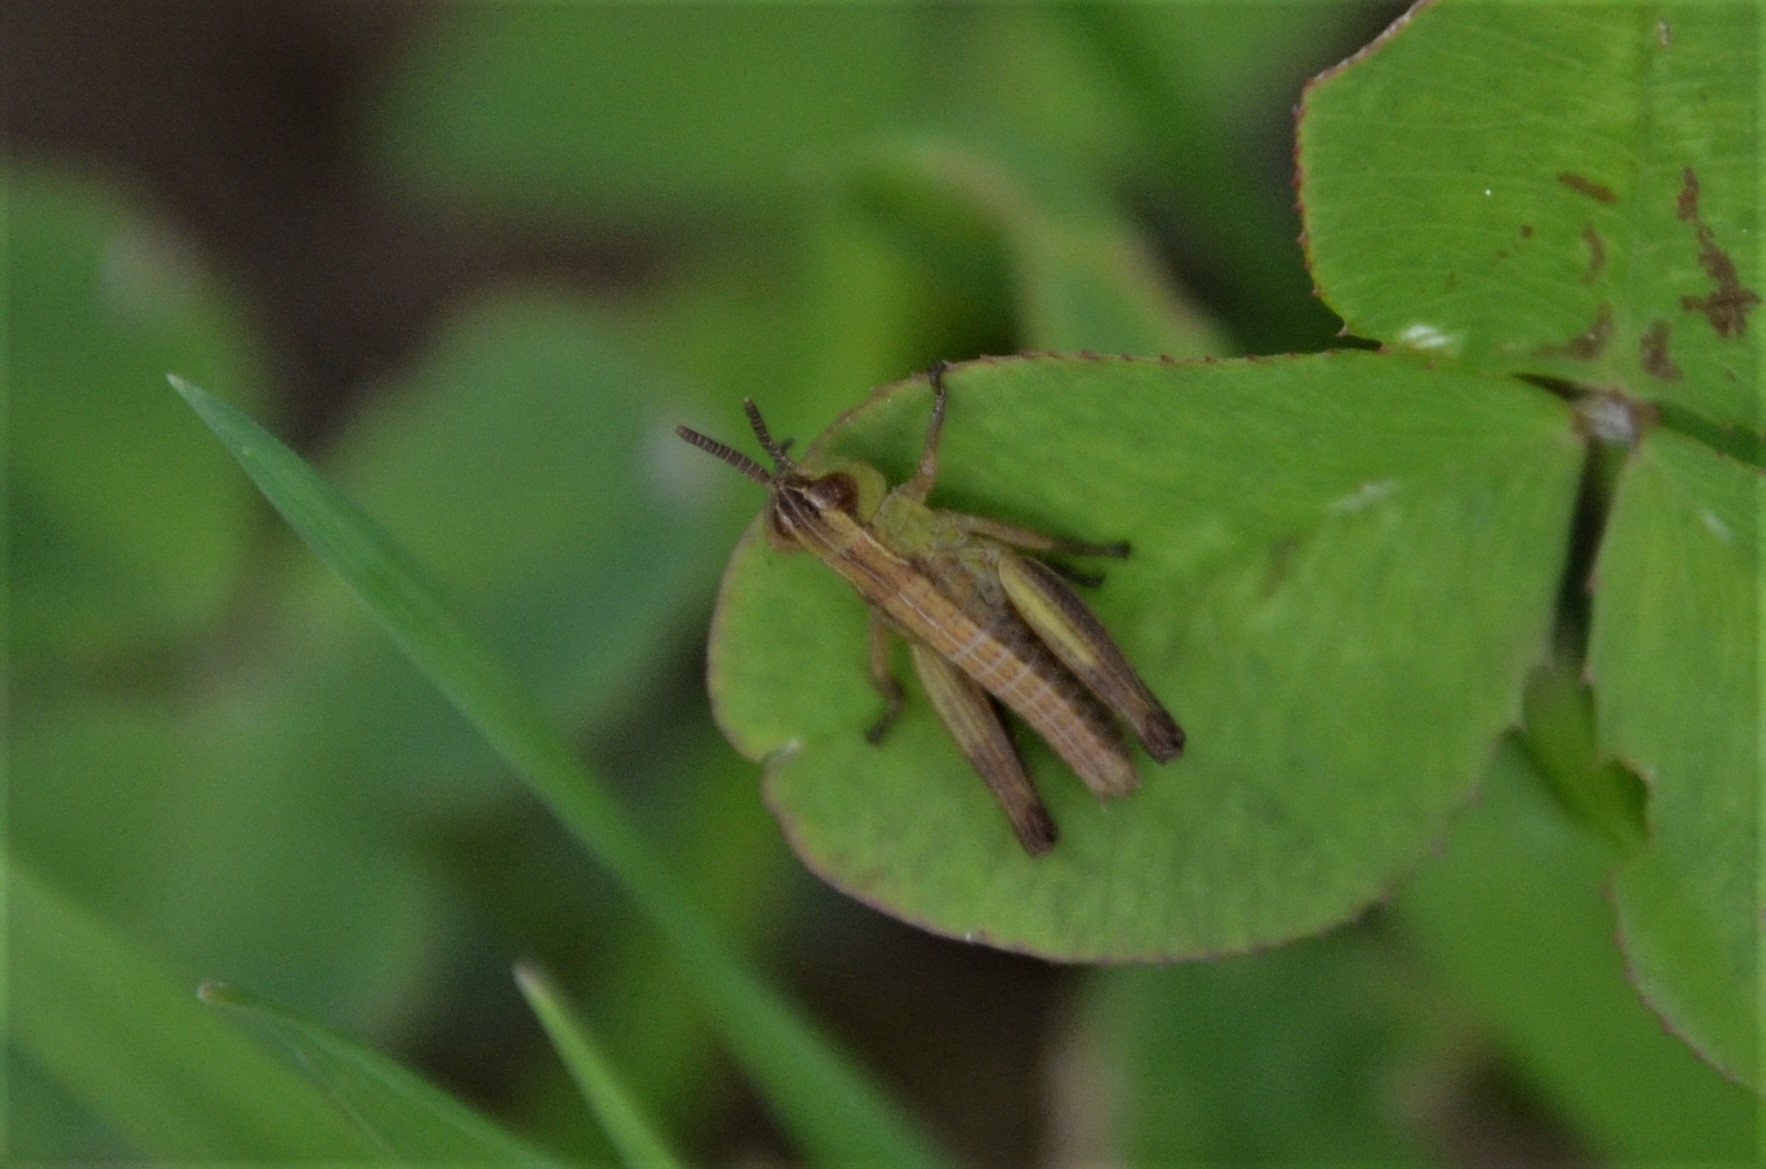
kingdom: Animalia
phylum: Arthropoda
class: Insecta
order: Orthoptera
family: Acrididae
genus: Pseudochorthippus
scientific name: Pseudochorthippus parallelus
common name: Meadow grasshopper
